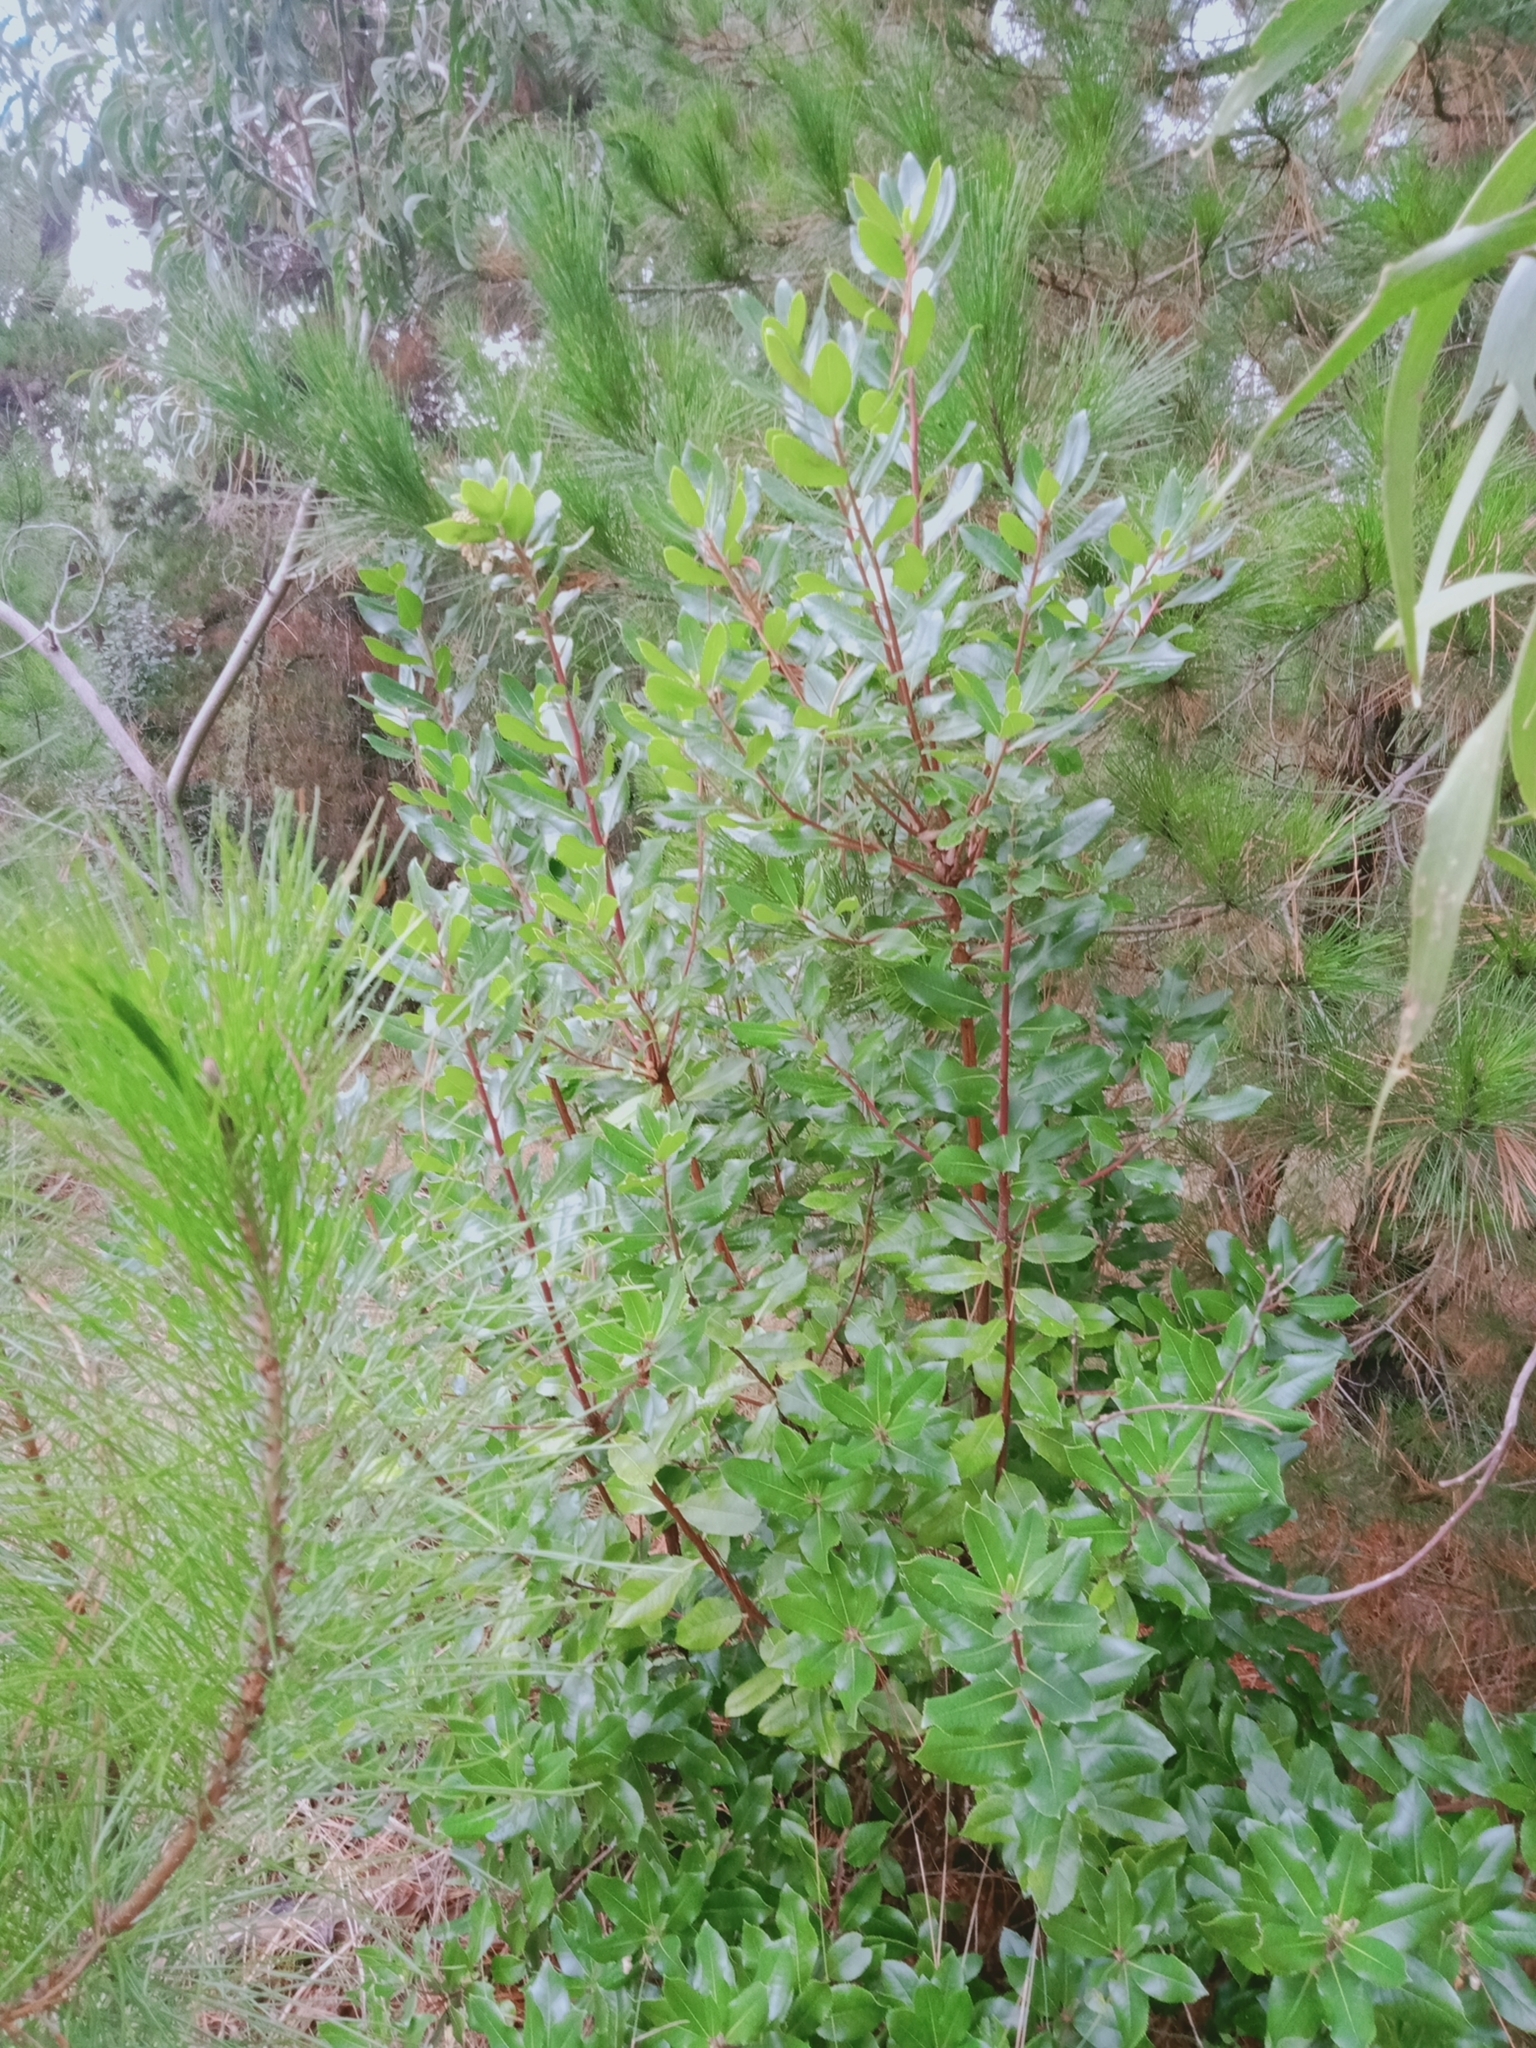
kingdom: Plantae
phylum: Tracheophyta
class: Magnoliopsida
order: Ericales
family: Ericaceae
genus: Arbutus
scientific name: Arbutus unedo
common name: Strawberry-tree
